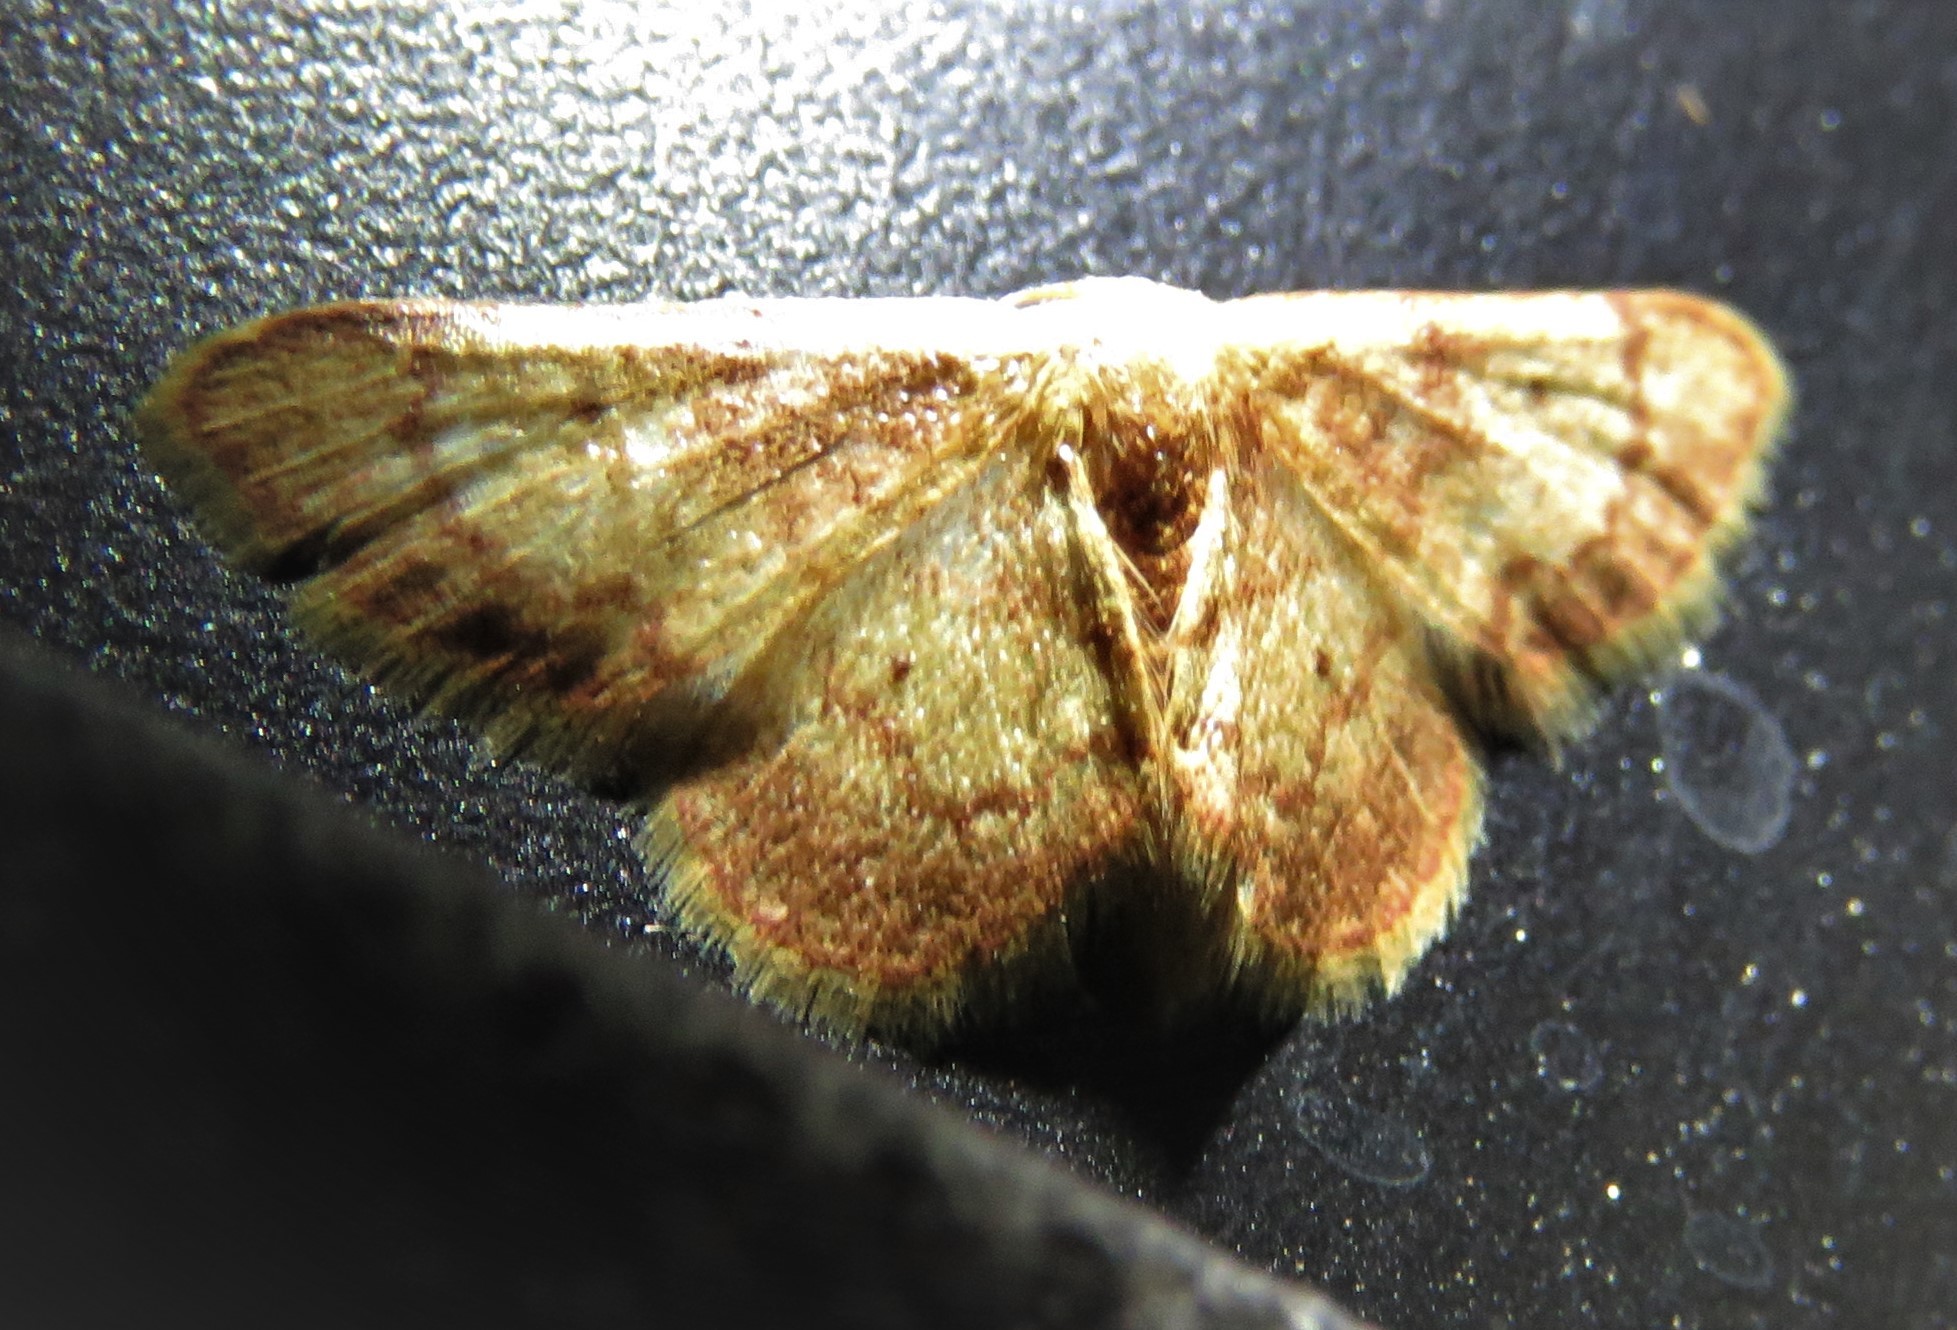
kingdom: Animalia
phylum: Arthropoda
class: Insecta
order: Lepidoptera
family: Geometridae
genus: Idaea
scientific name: Idaea demissaria
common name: Red-bordered wave
